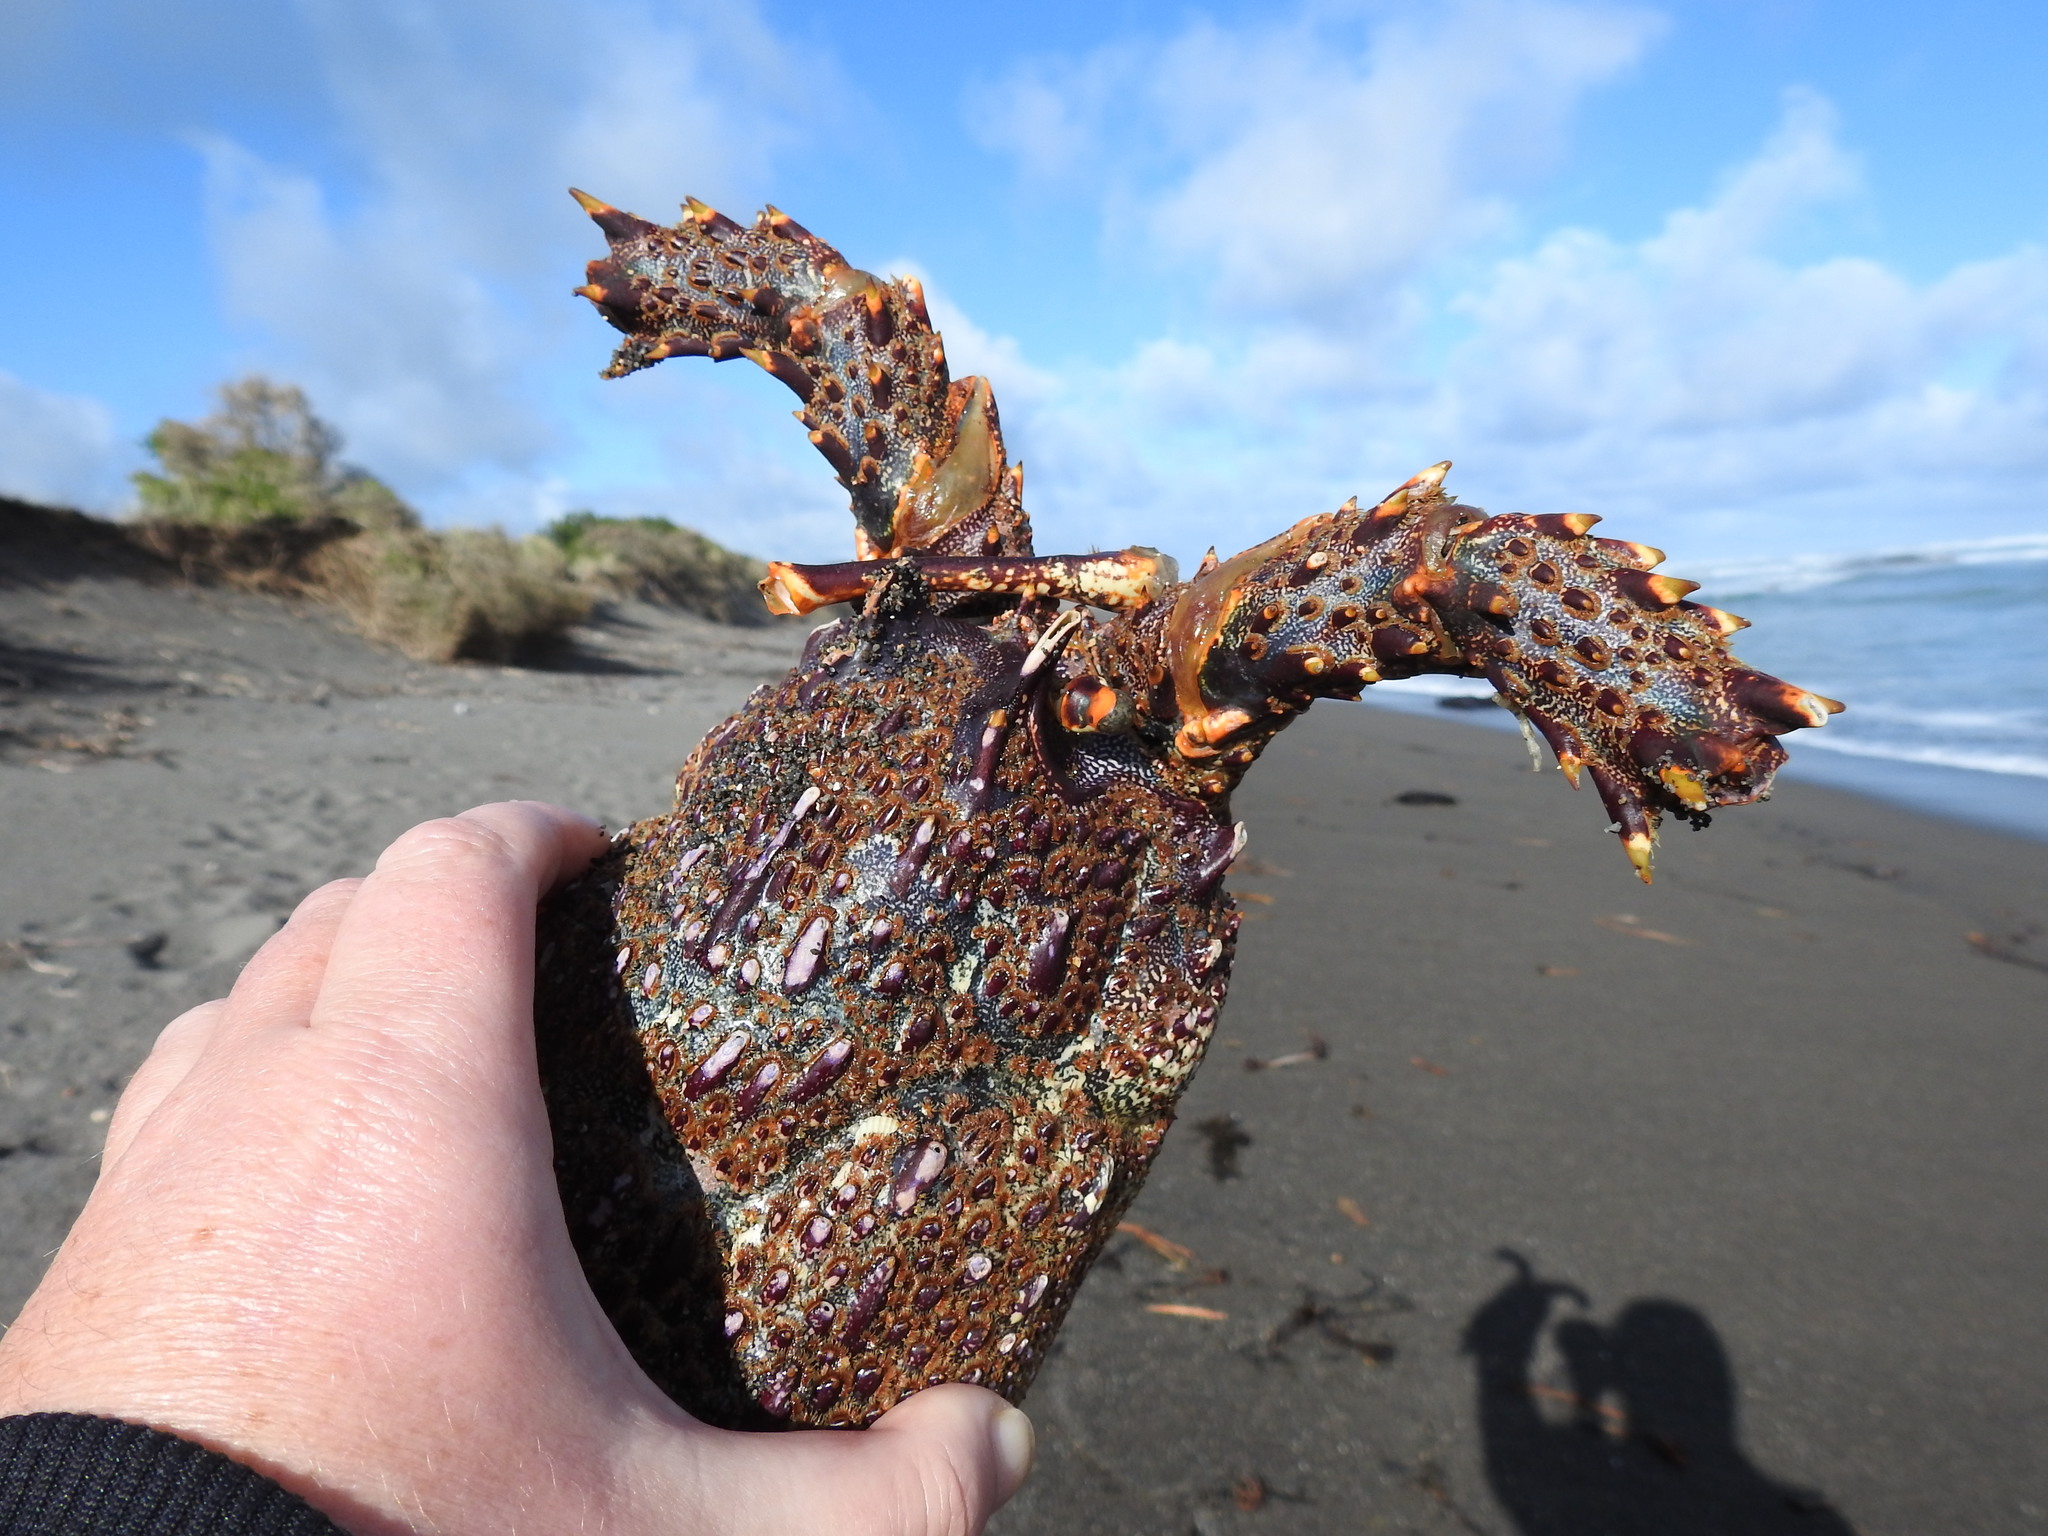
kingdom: Animalia
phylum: Arthropoda
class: Malacostraca
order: Decapoda
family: Palinuridae
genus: Jasus
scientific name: Jasus edwardsii
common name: Red rock lobster
